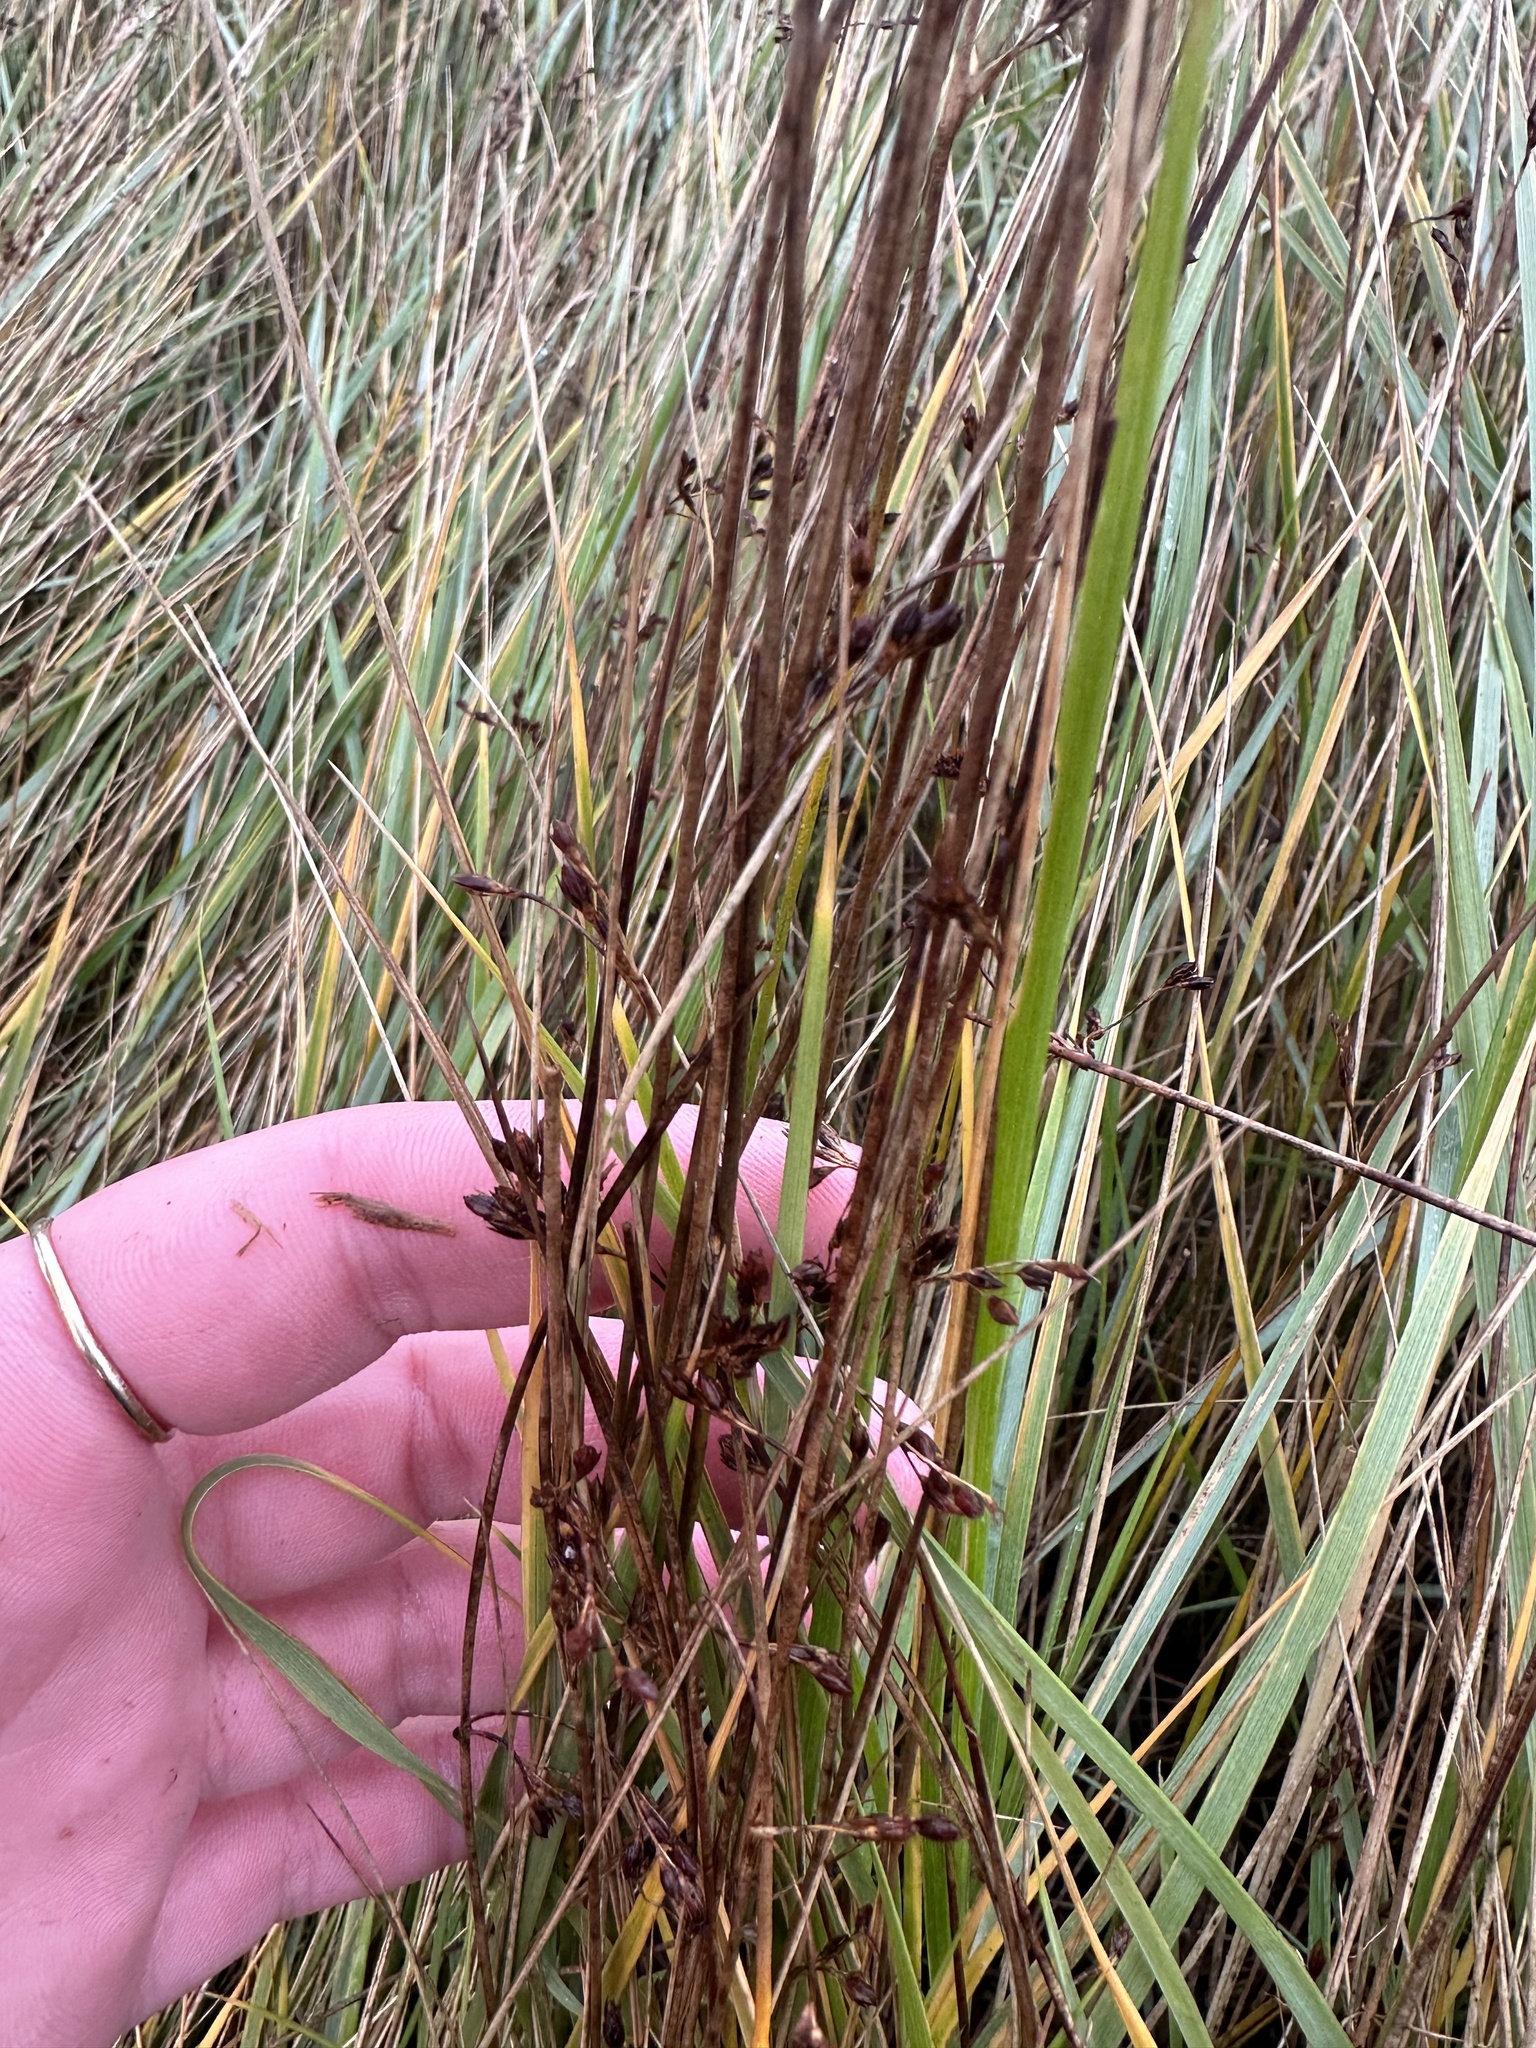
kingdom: Plantae
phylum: Tracheophyta
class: Liliopsida
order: Poales
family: Juncaceae
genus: Juncus
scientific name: Juncus balticus
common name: Baltic rush
